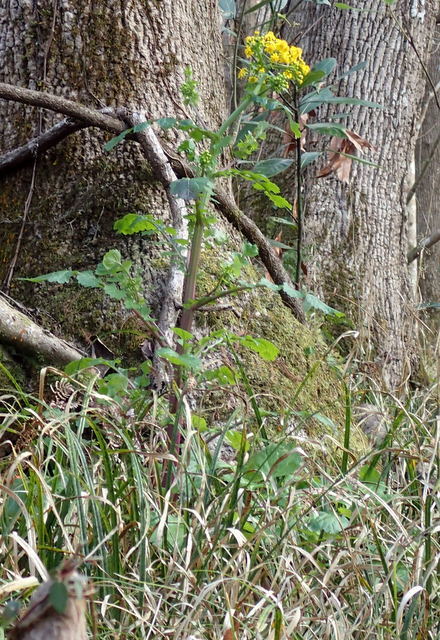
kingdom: Plantae
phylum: Tracheophyta
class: Magnoliopsida
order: Asterales
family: Asteraceae
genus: Packera
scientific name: Packera glabella
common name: Butterweed
